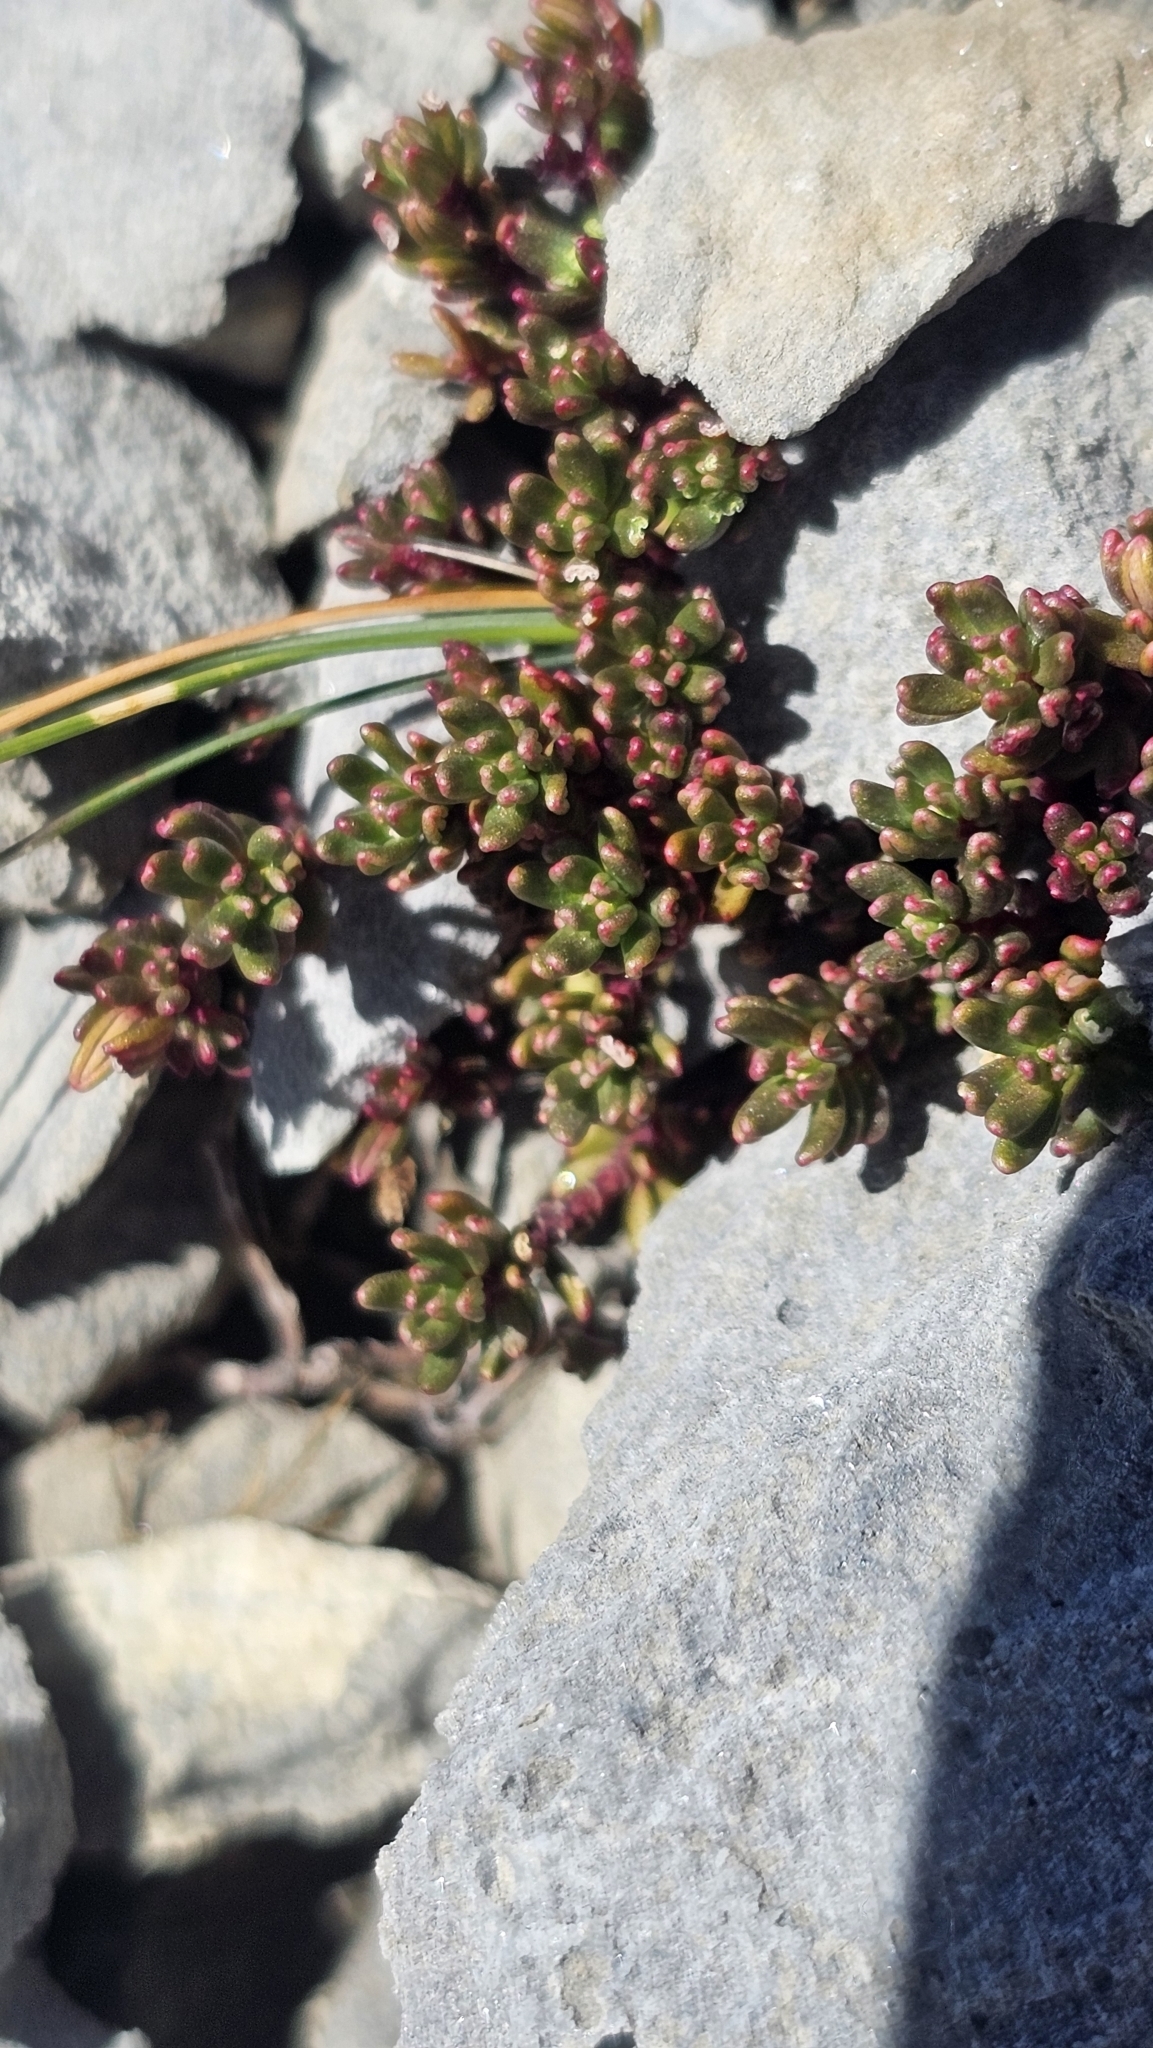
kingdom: Plantae
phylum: Tracheophyta
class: Magnoliopsida
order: Malpighiales
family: Phyllanthaceae
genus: Poranthera
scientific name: Poranthera alpina
